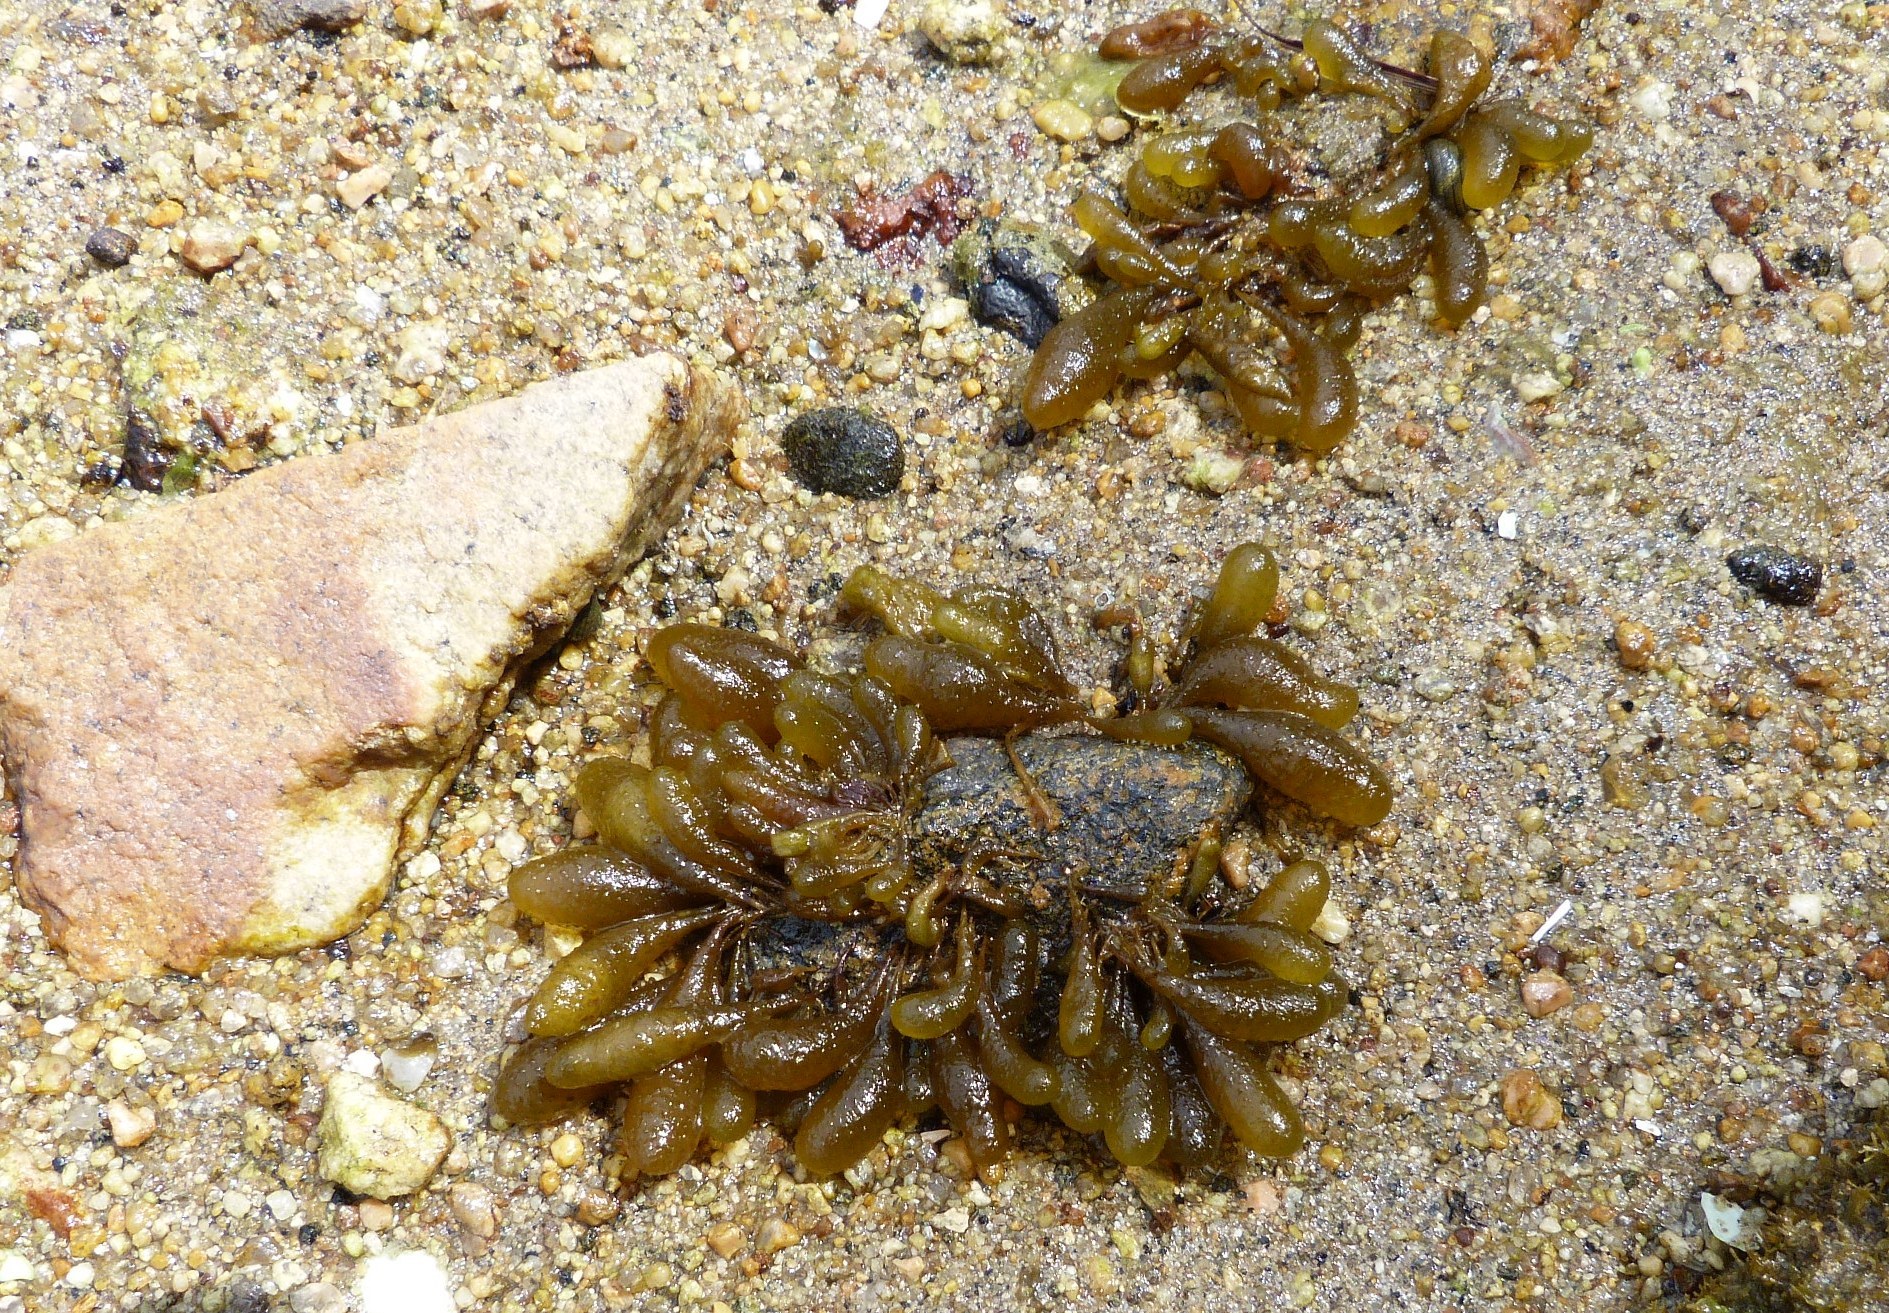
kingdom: Chromista
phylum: Ochrophyta
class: Phaeophyceae
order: Ectocarpales
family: Adenocystaceae
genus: Adenocystis
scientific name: Adenocystis utricularis
